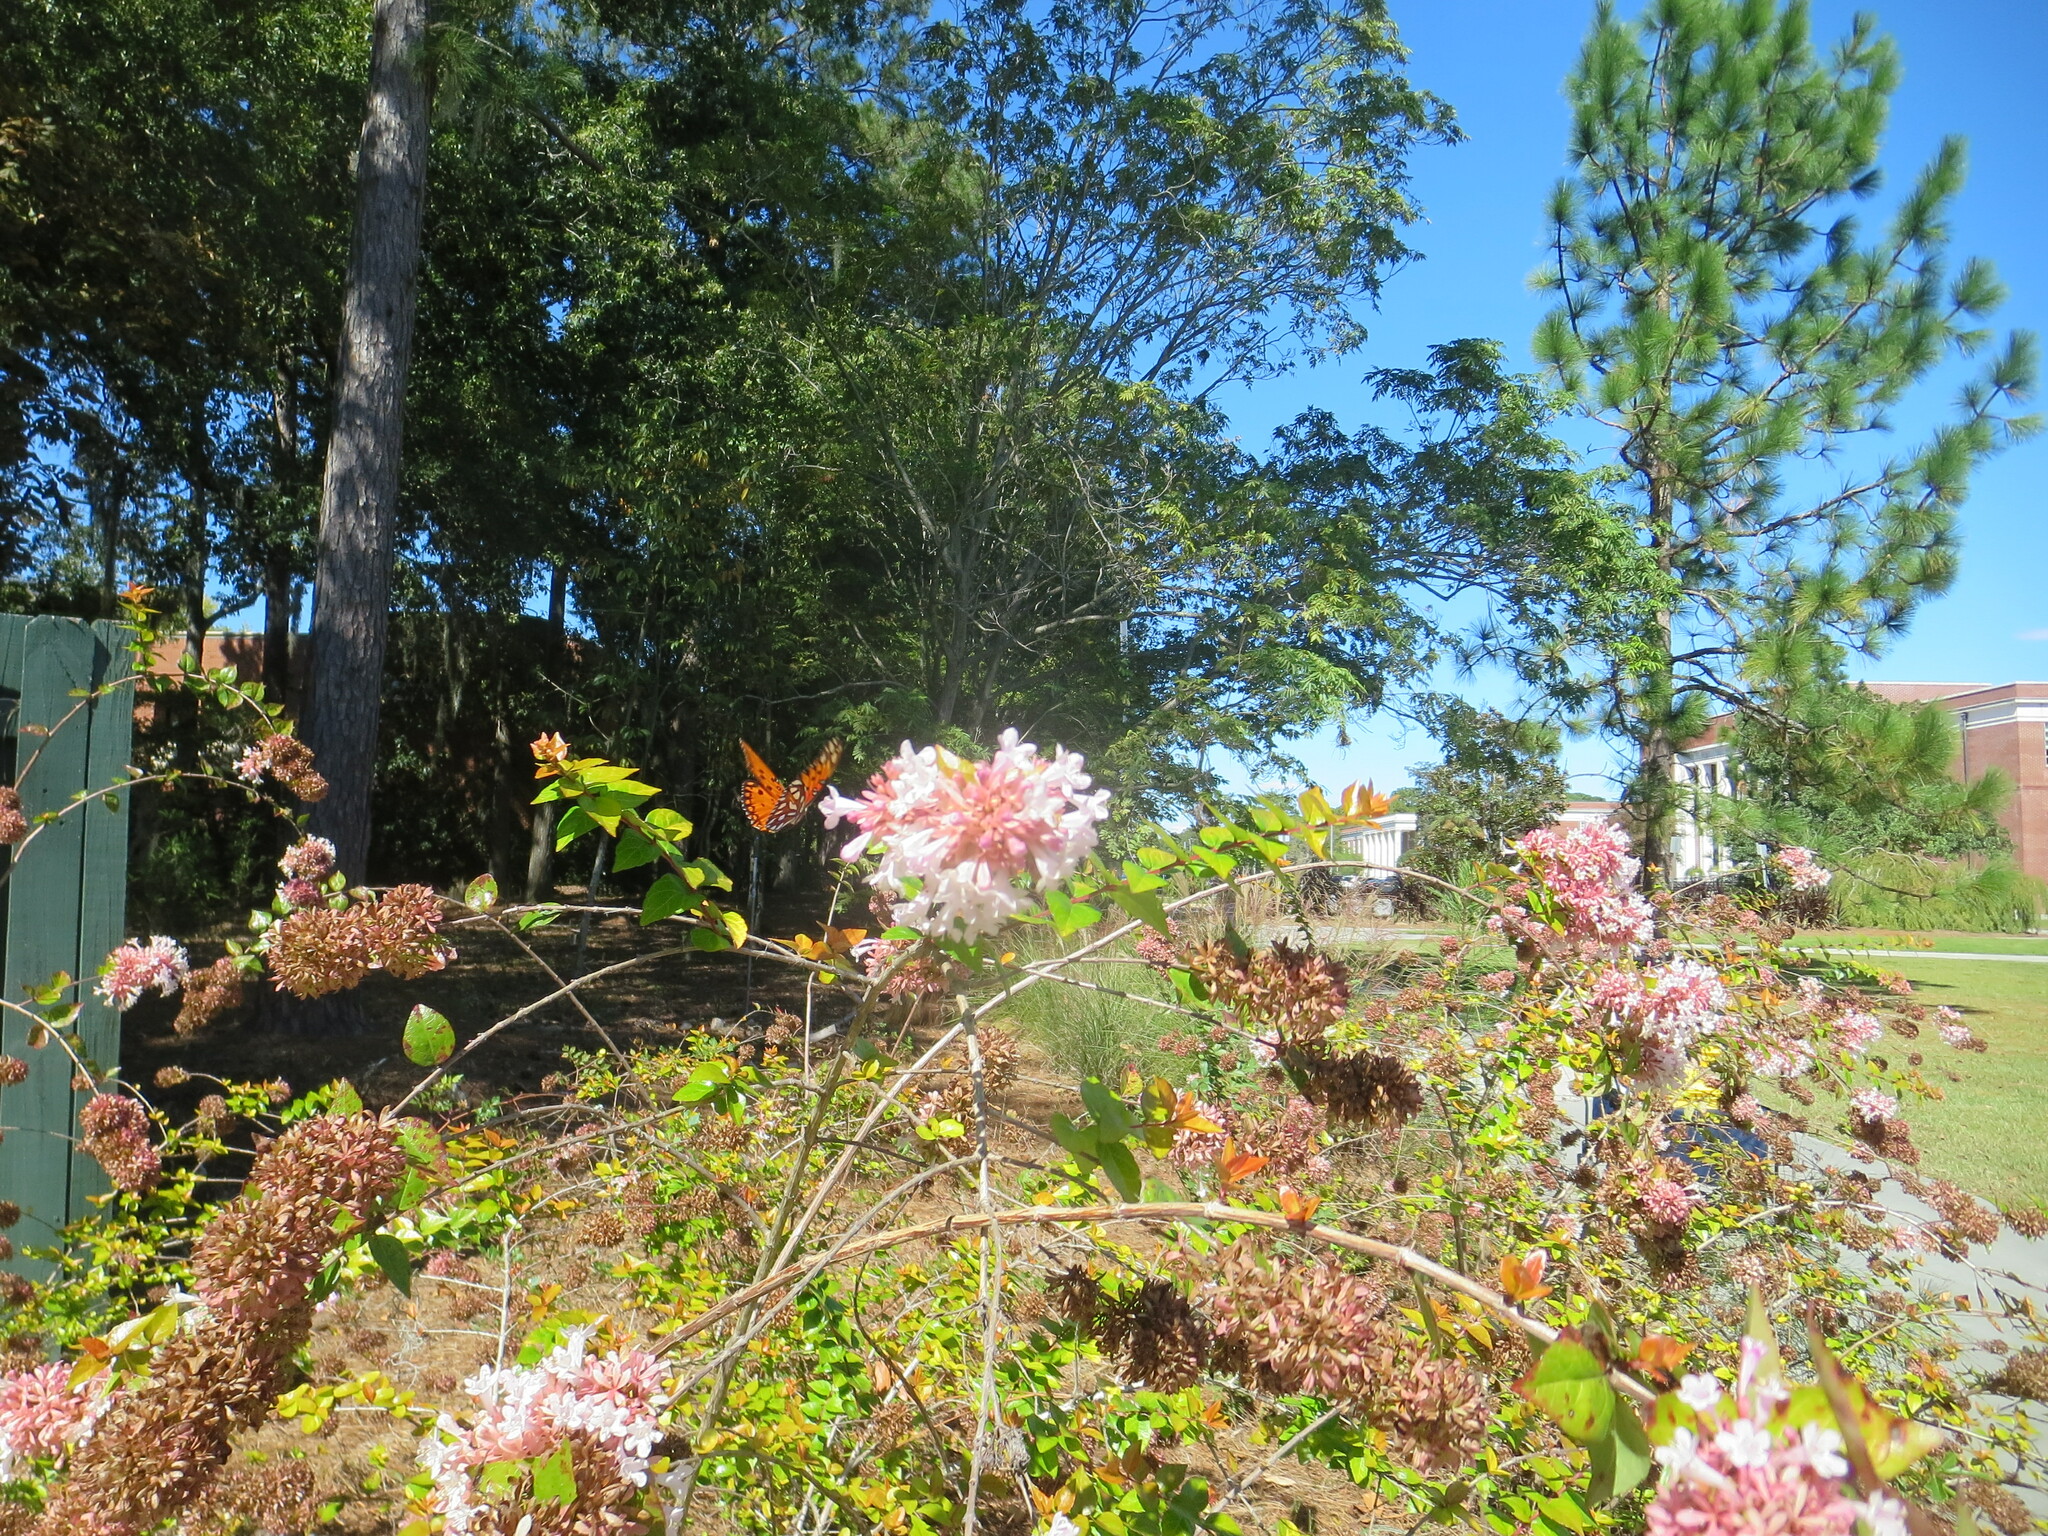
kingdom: Animalia
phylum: Arthropoda
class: Insecta
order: Lepidoptera
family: Nymphalidae
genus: Dione
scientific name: Dione vanillae
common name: Gulf fritillary
